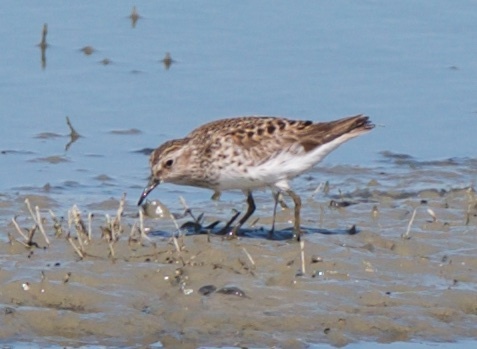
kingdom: Animalia
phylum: Chordata
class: Aves
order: Charadriiformes
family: Scolopacidae
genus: Calidris
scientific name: Calidris minutilla
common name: Least sandpiper
